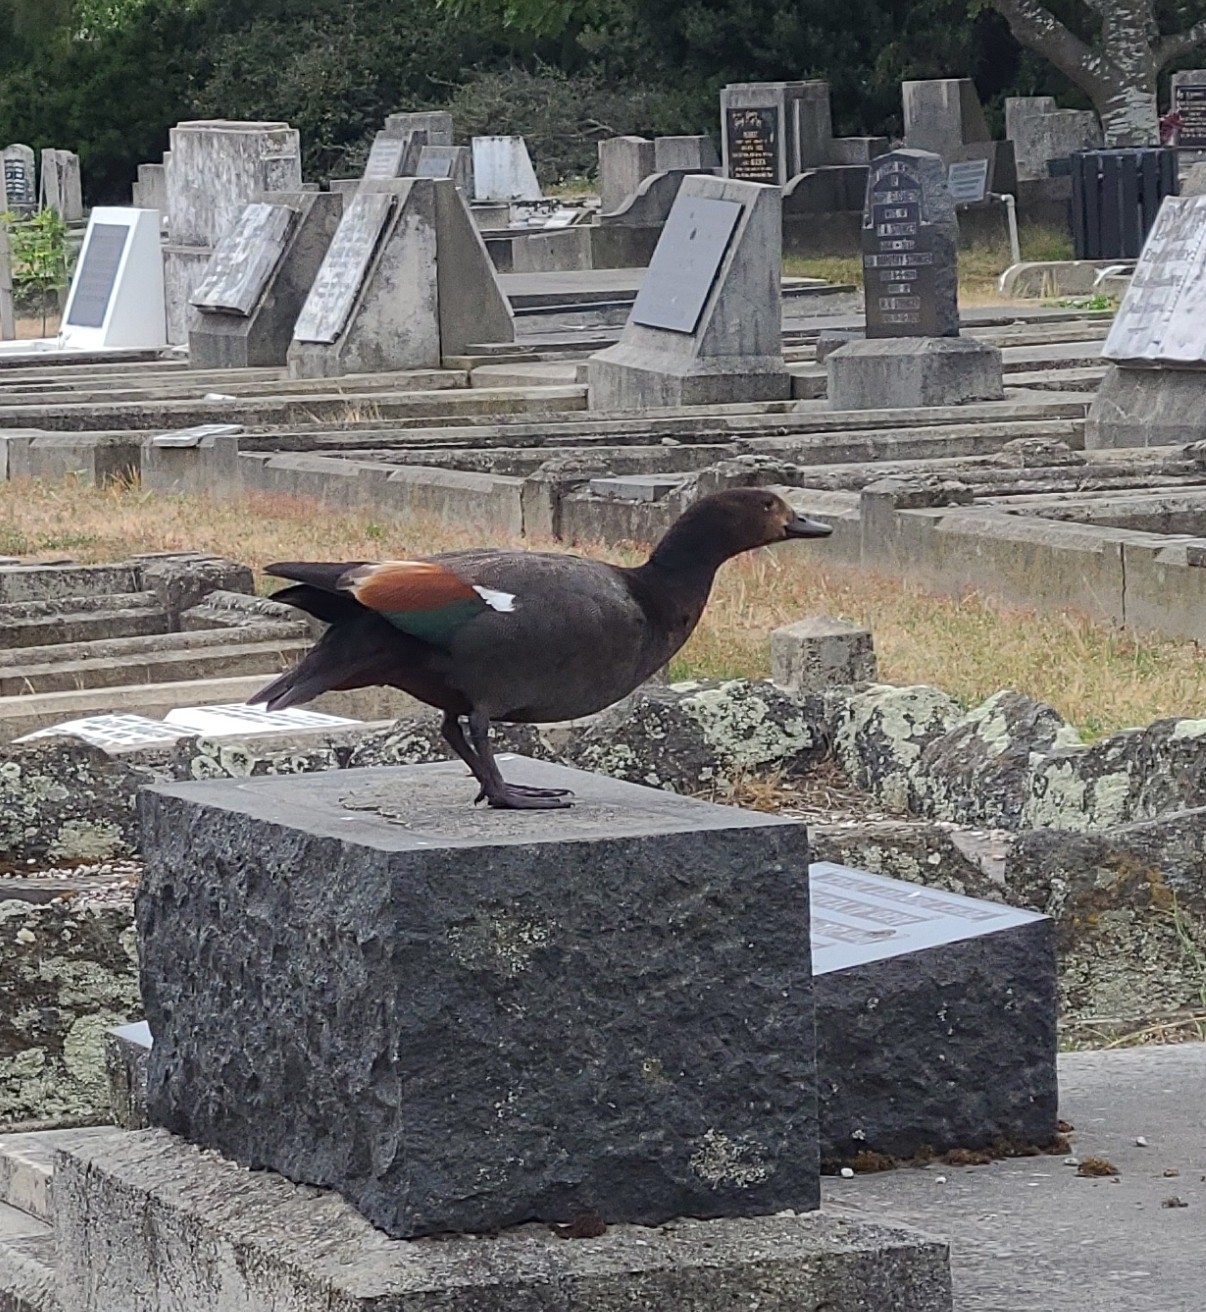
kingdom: Animalia
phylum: Chordata
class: Aves
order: Anseriformes
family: Anatidae
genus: Tadorna
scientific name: Tadorna variegata
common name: Paradise shelduck
